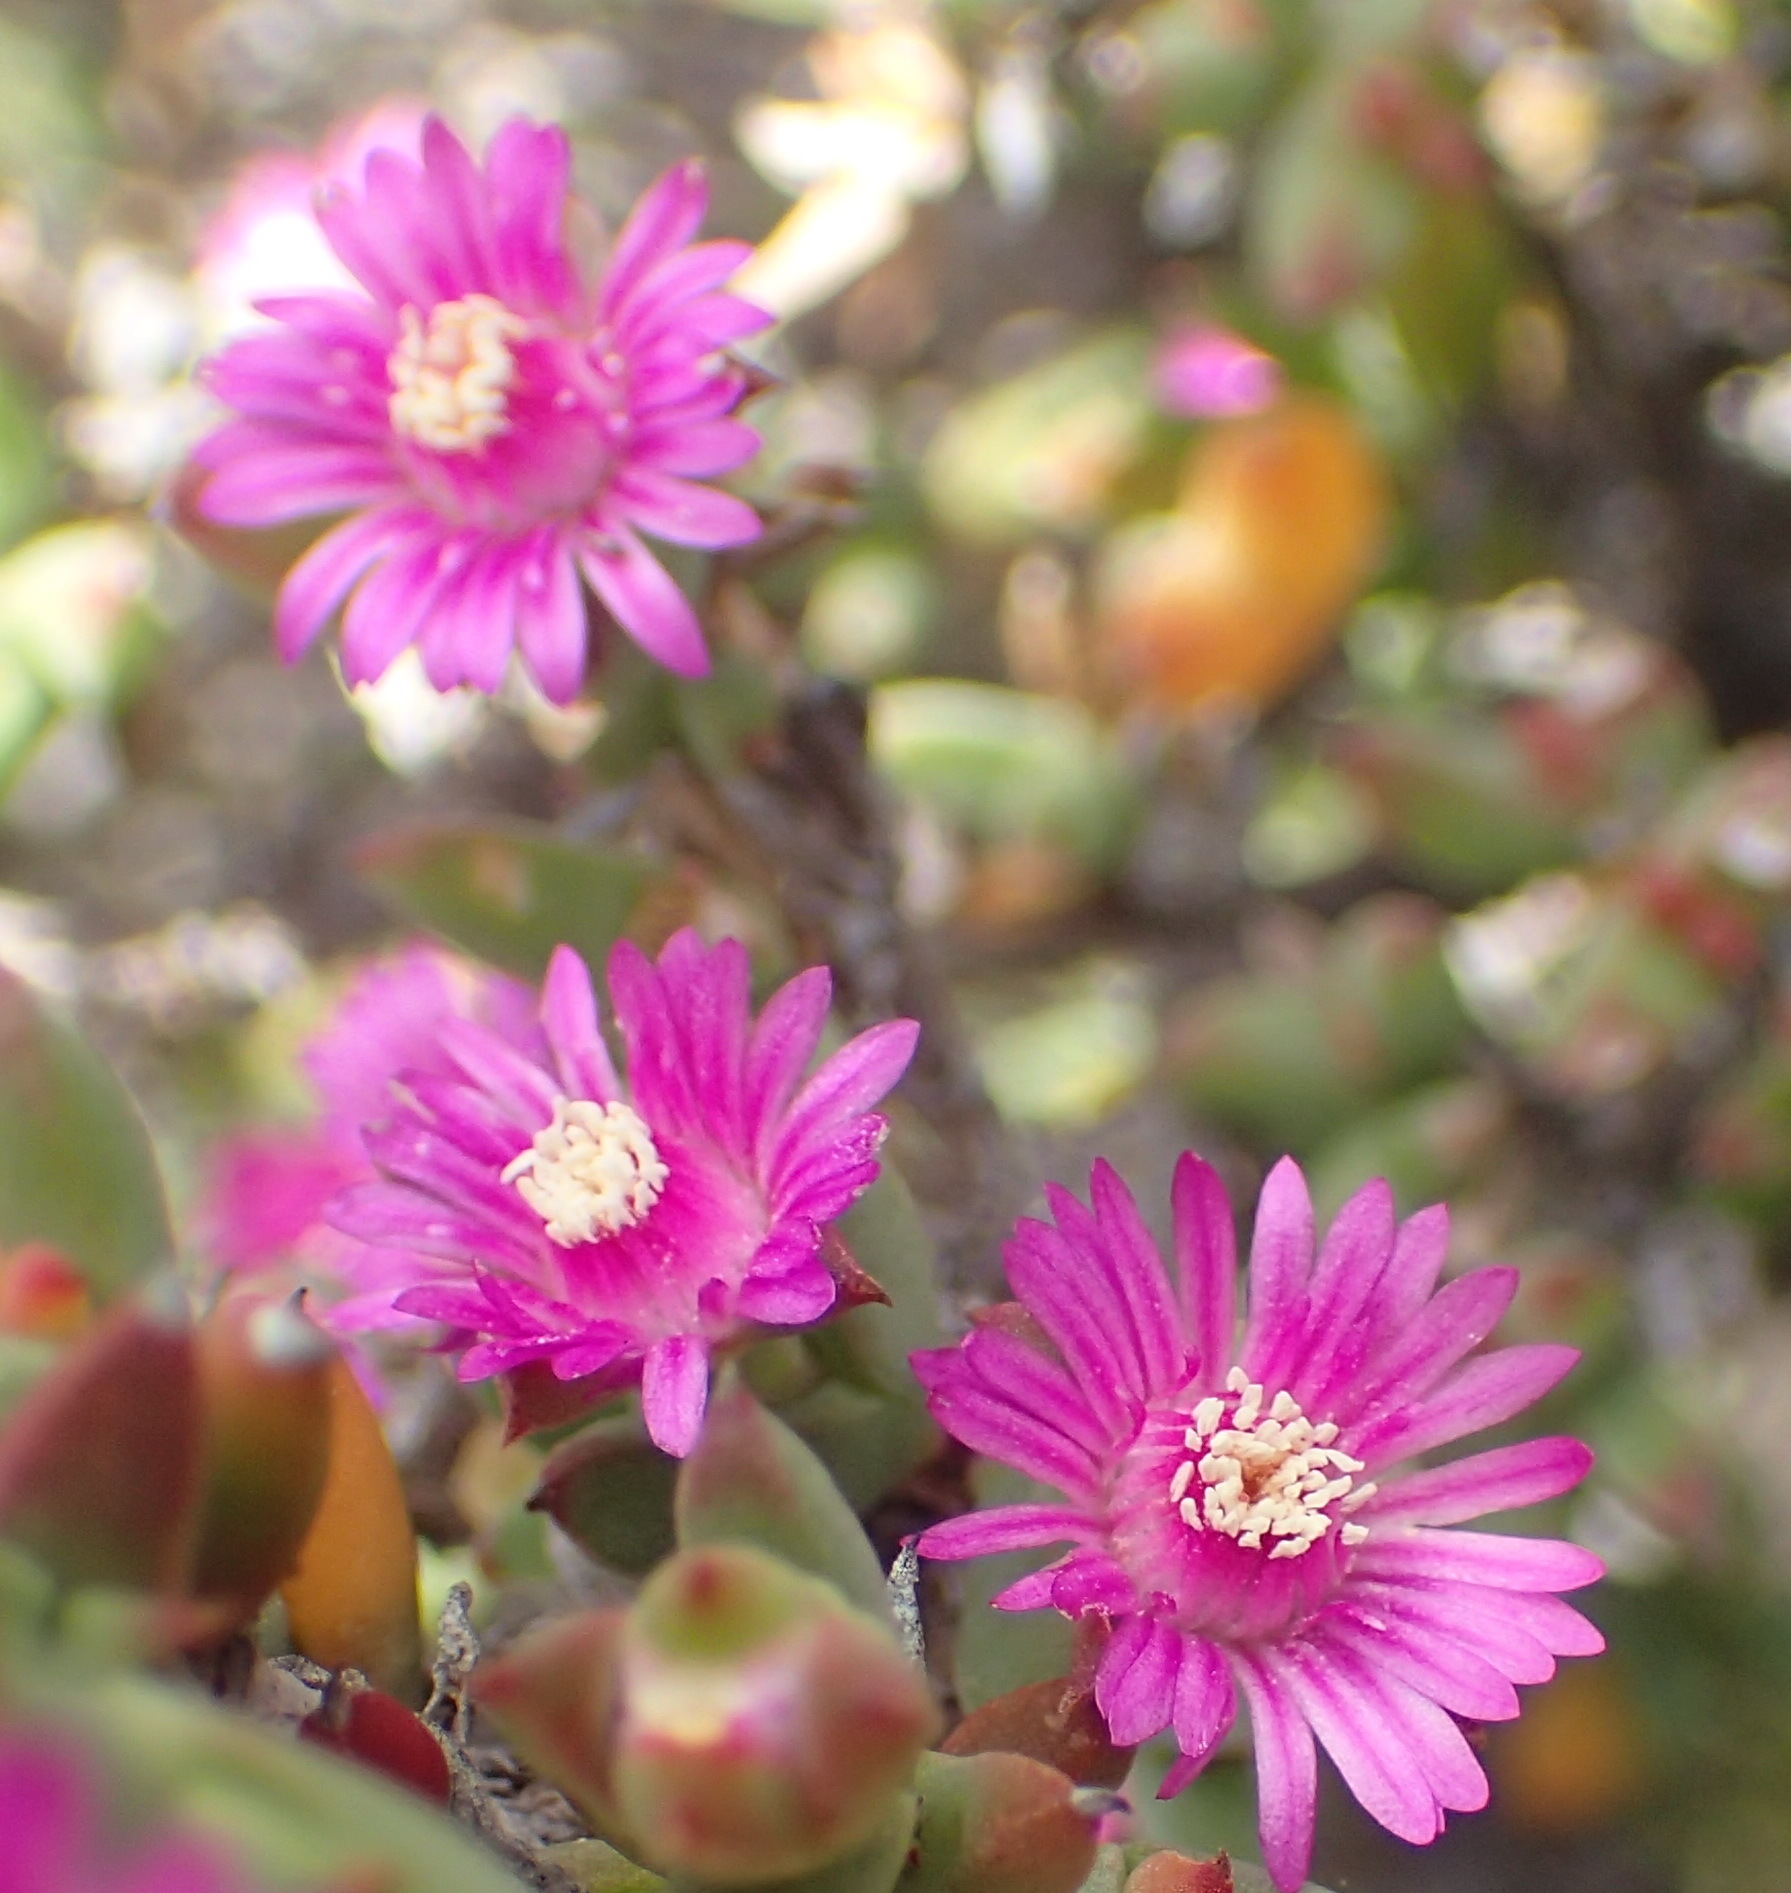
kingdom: Plantae
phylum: Tracheophyta
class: Magnoliopsida
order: Caryophyllales
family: Aizoaceae
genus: Delosperma
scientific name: Delosperma asperulum
